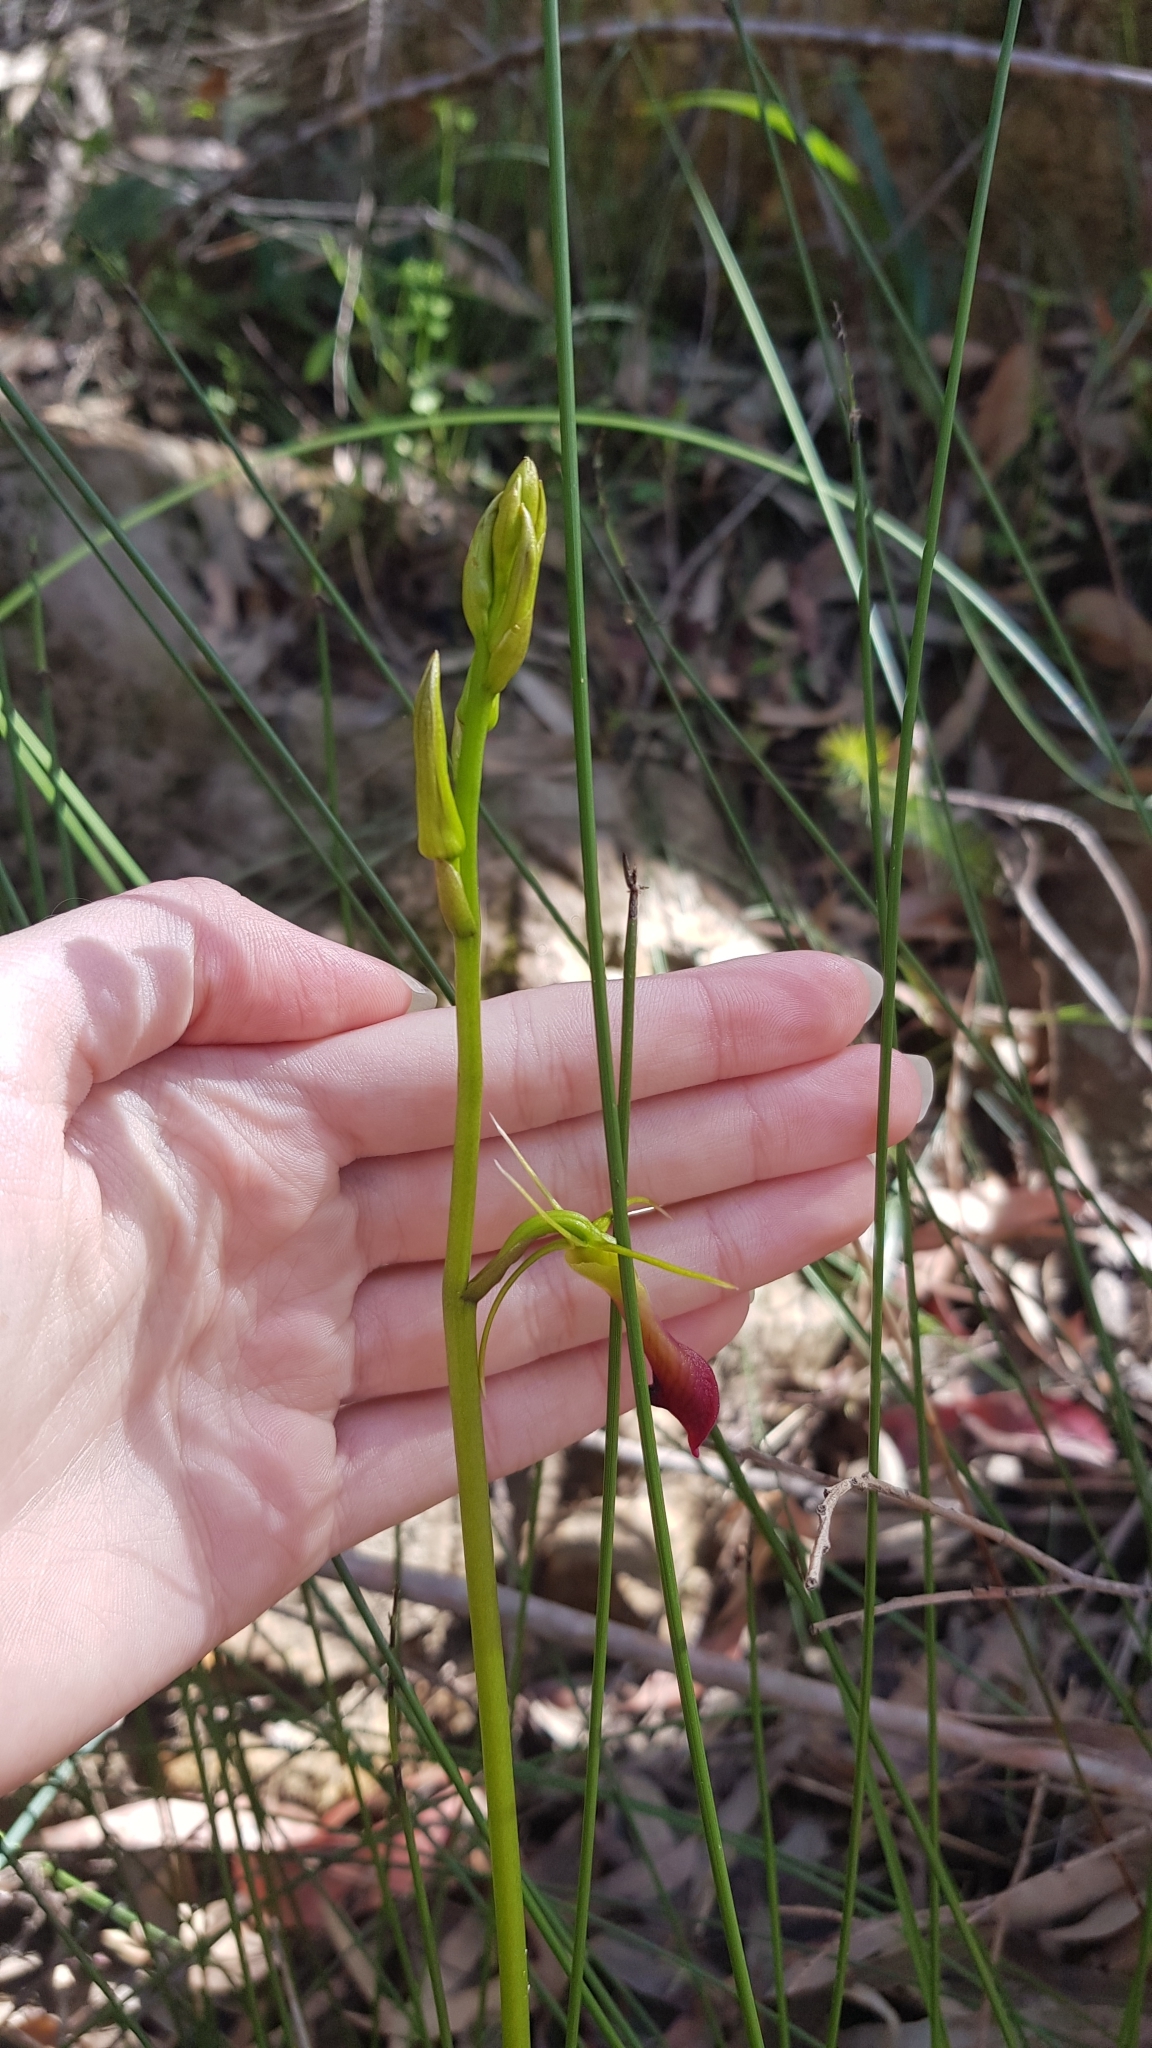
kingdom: Plantae
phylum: Tracheophyta
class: Liliopsida
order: Asparagales
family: Orchidaceae
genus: Cryptostylis
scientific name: Cryptostylis subulata
